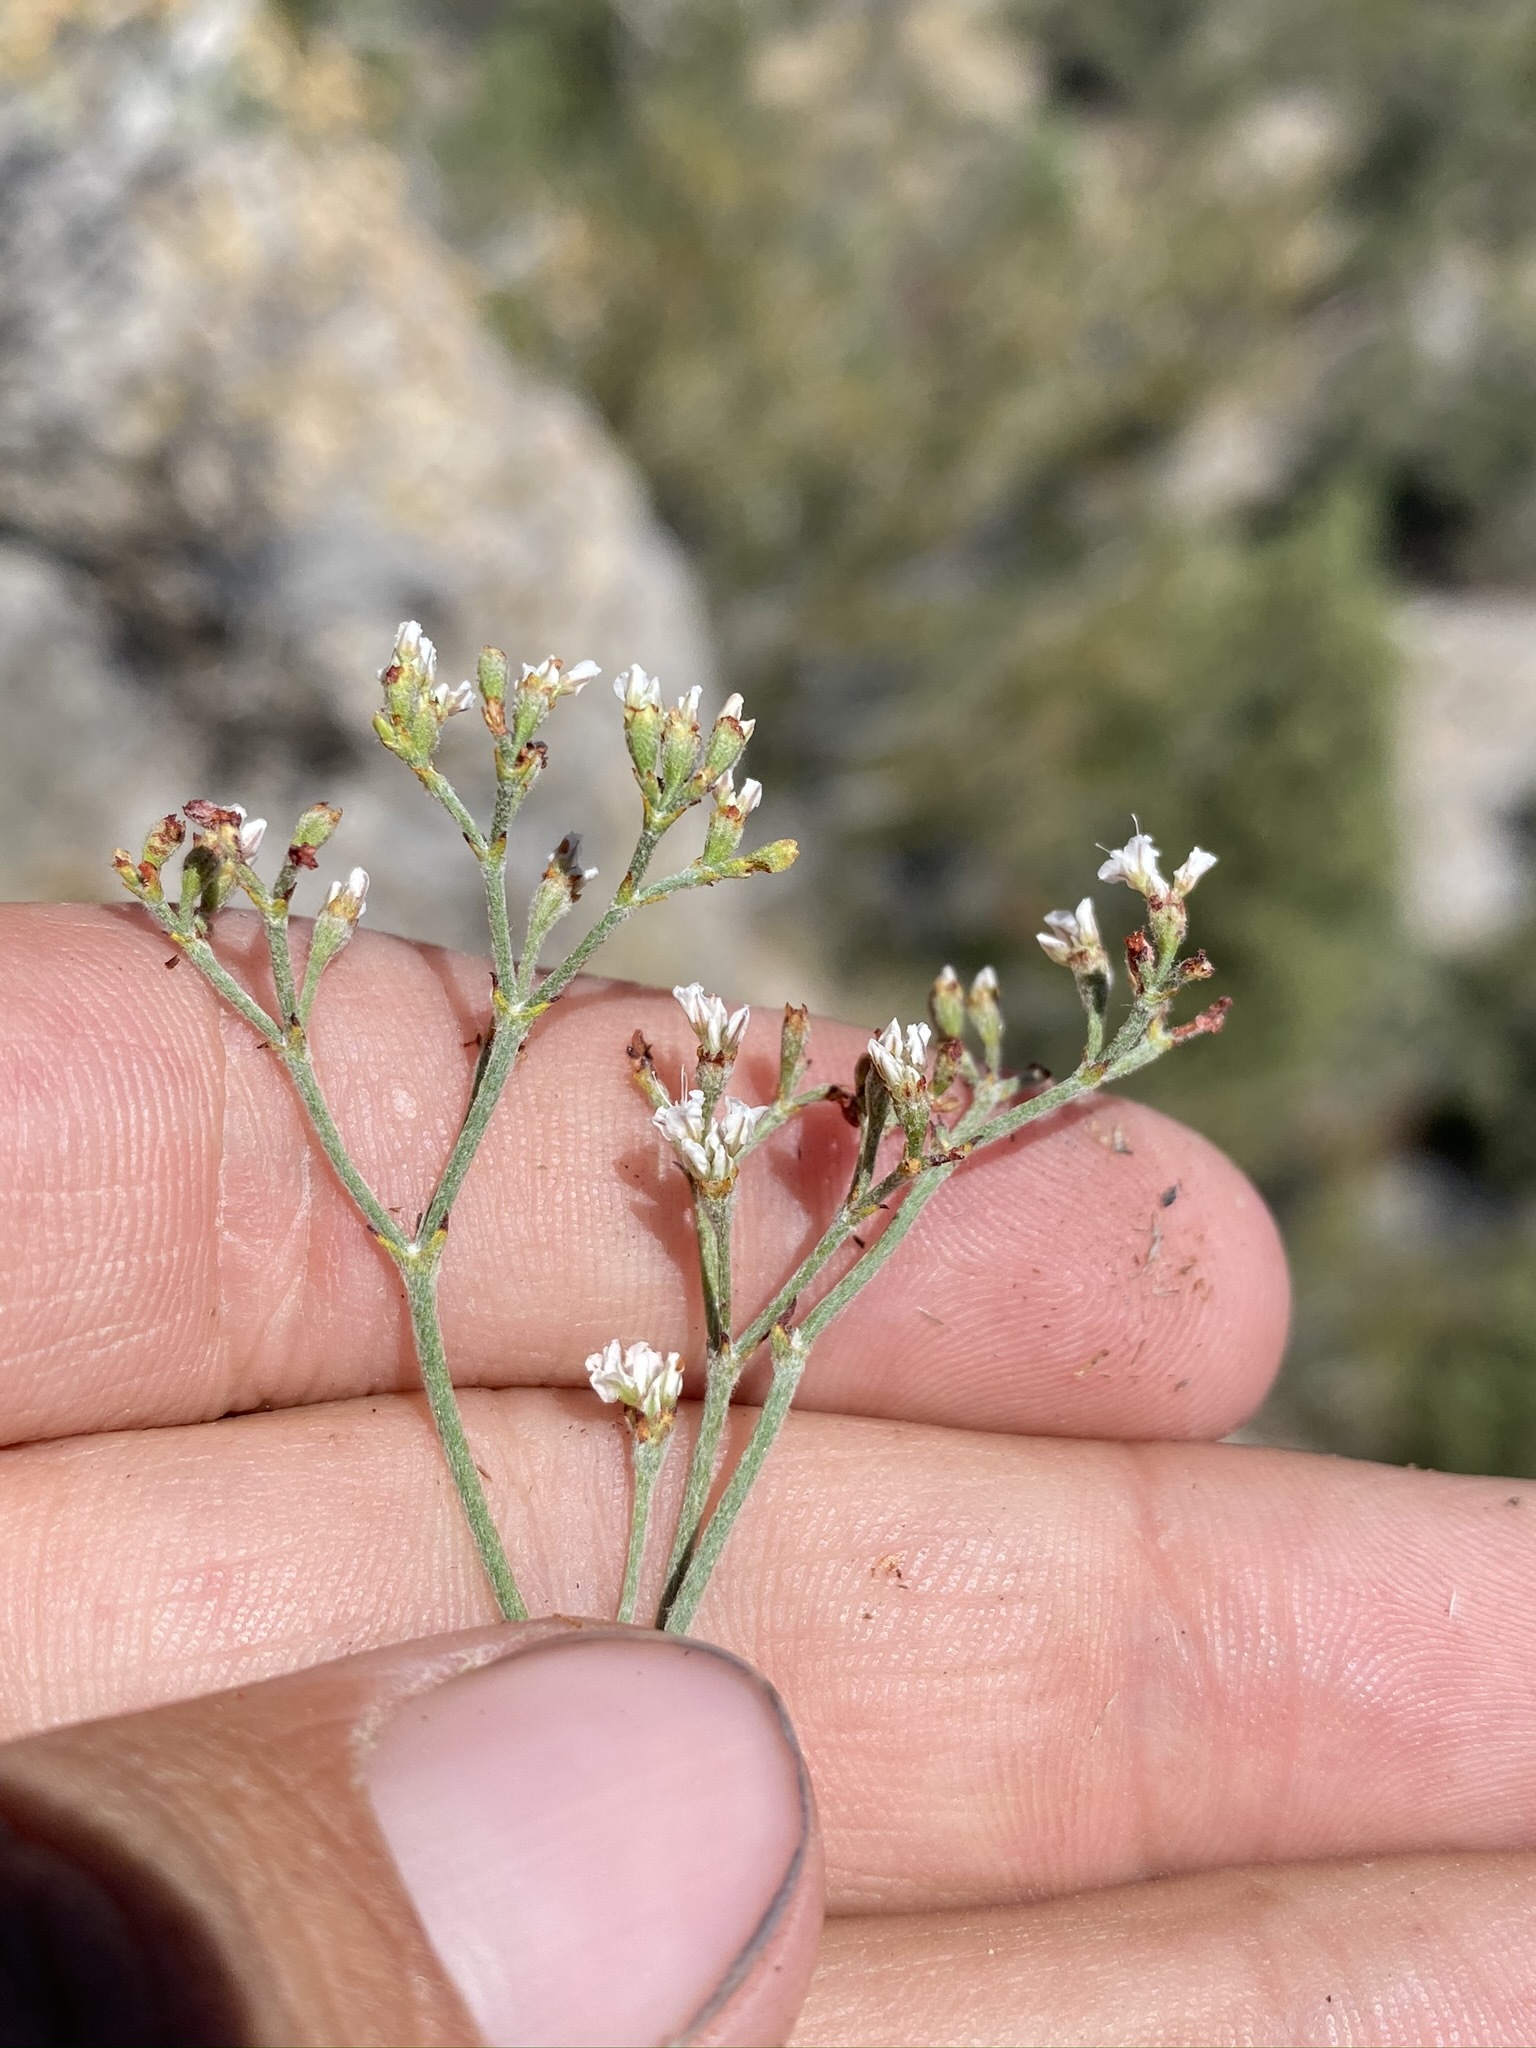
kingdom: Plantae
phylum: Tracheophyta
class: Magnoliopsida
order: Caryophyllales
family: Polygonaceae
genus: Eriogonum
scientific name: Eriogonum microtheca
